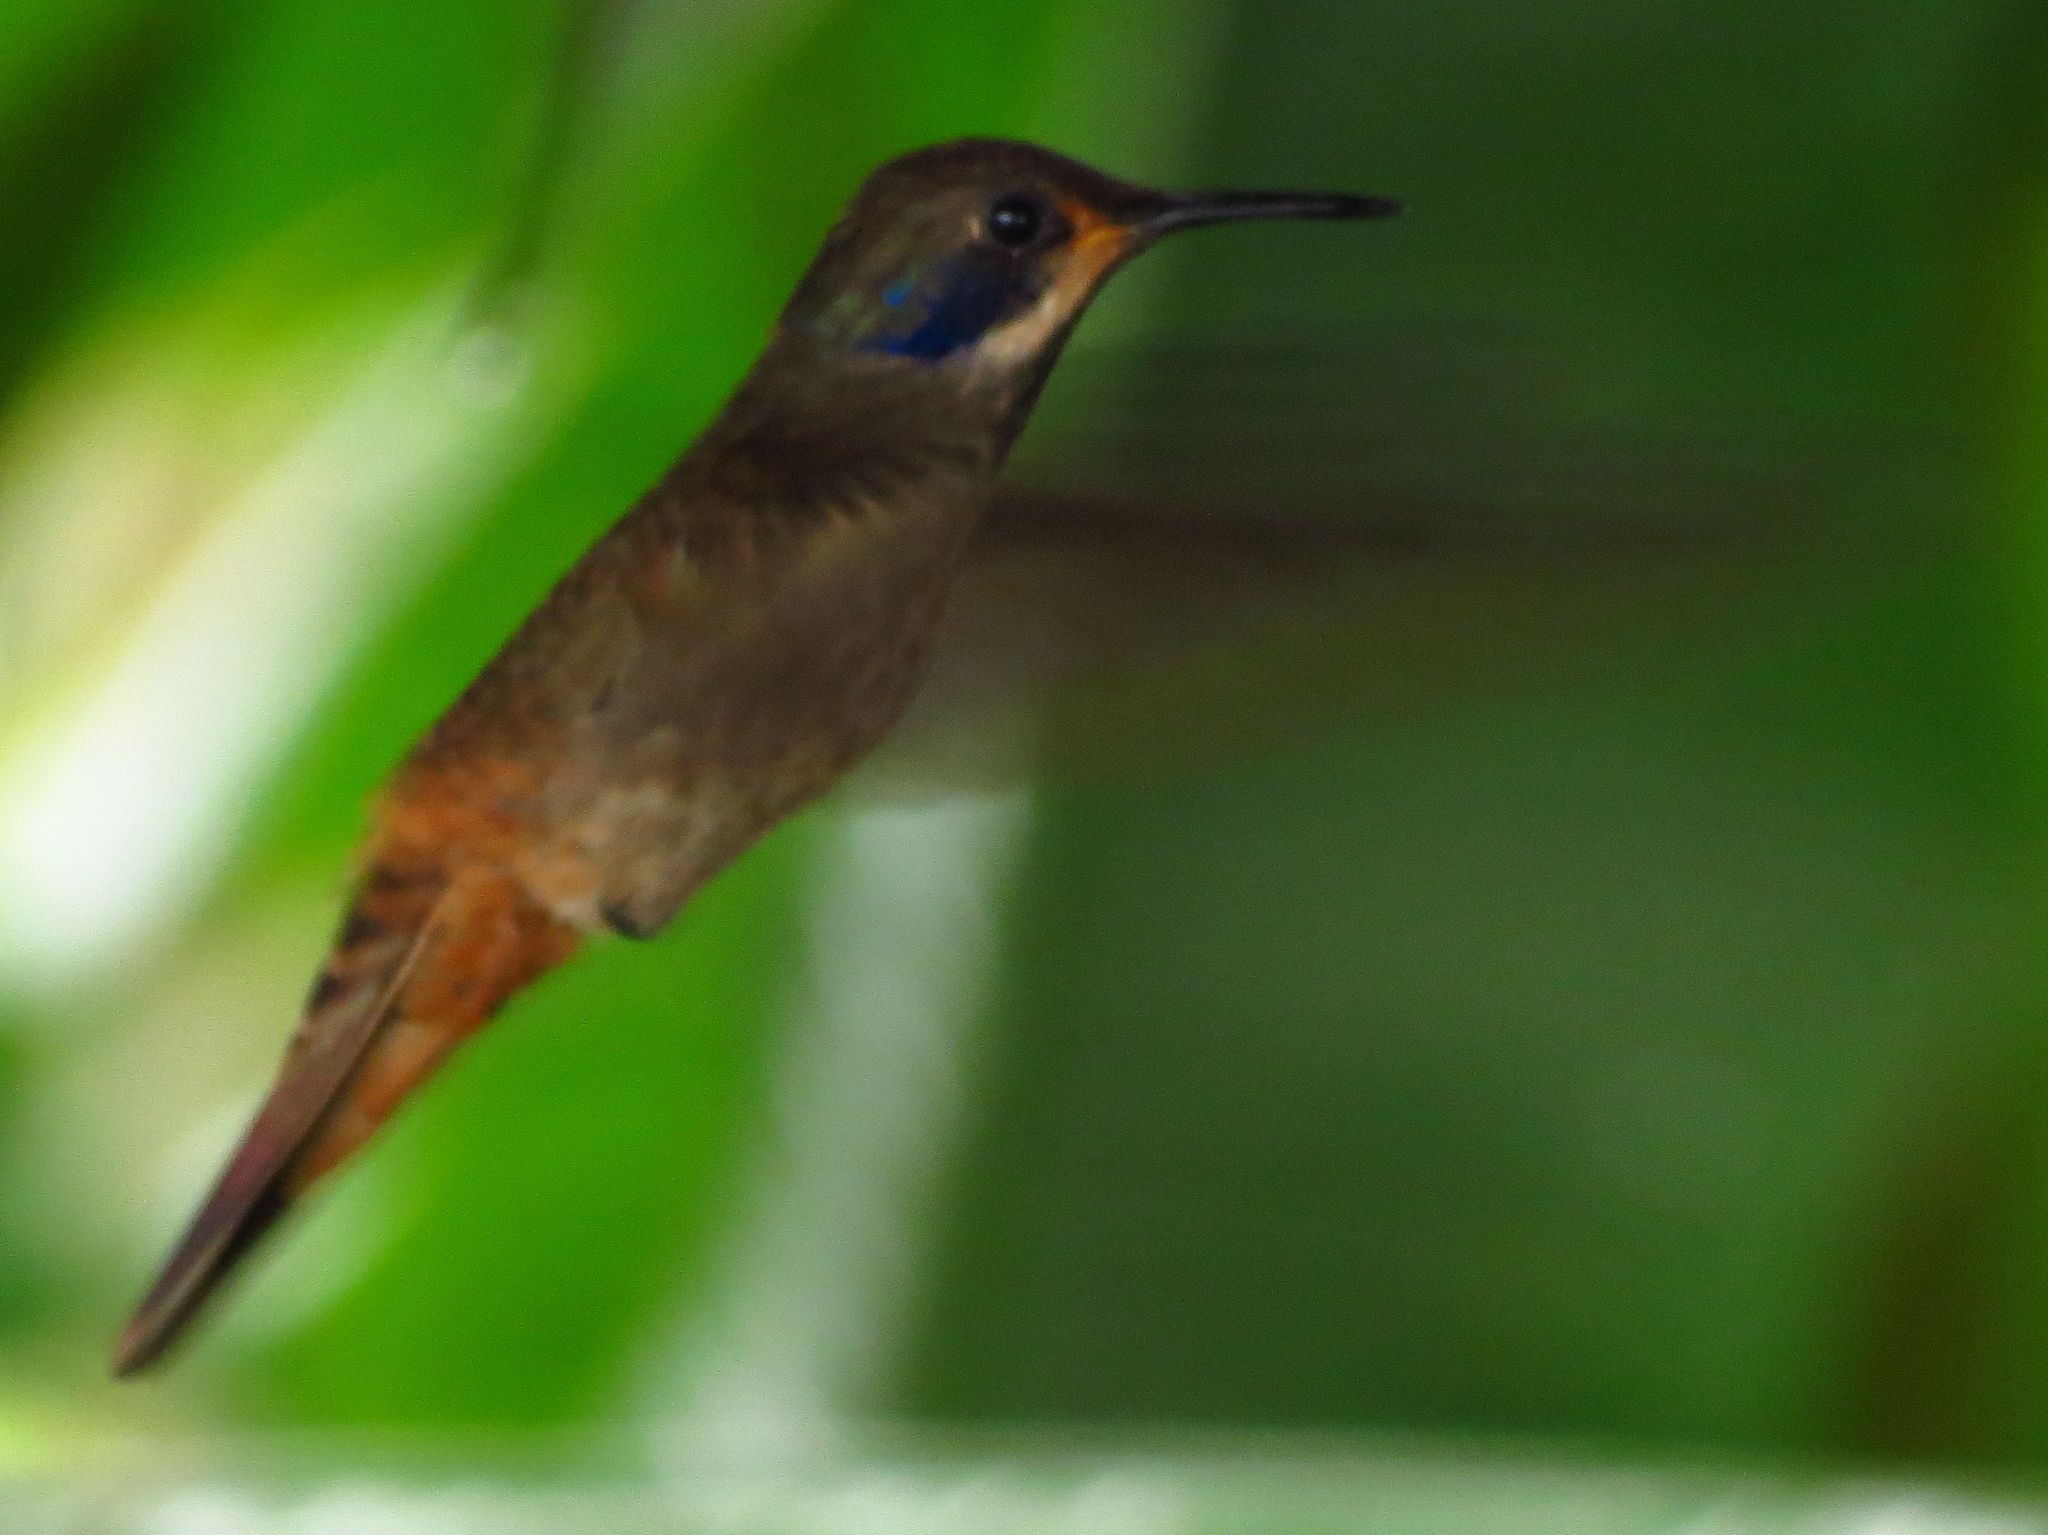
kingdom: Animalia
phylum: Chordata
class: Aves
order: Apodiformes
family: Trochilidae
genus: Colibri
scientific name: Colibri delphinae
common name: Brown violetear
